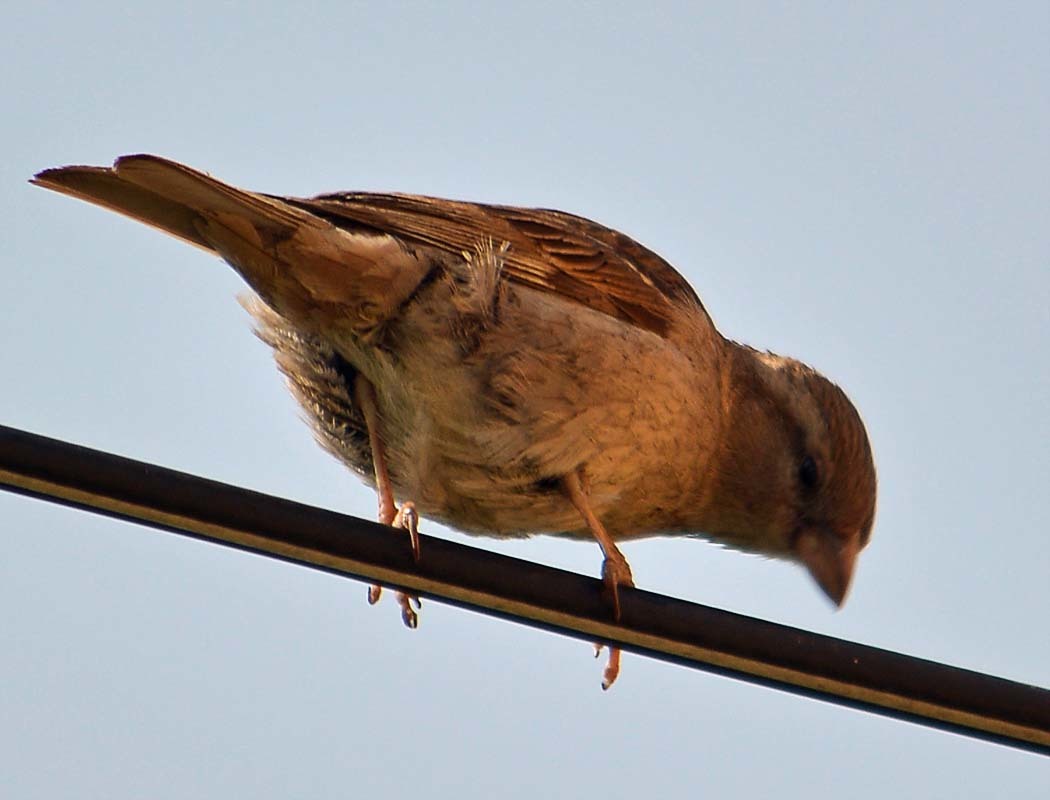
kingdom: Animalia
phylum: Chordata
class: Aves
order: Passeriformes
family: Passeridae
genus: Passer
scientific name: Passer domesticus
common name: House sparrow
